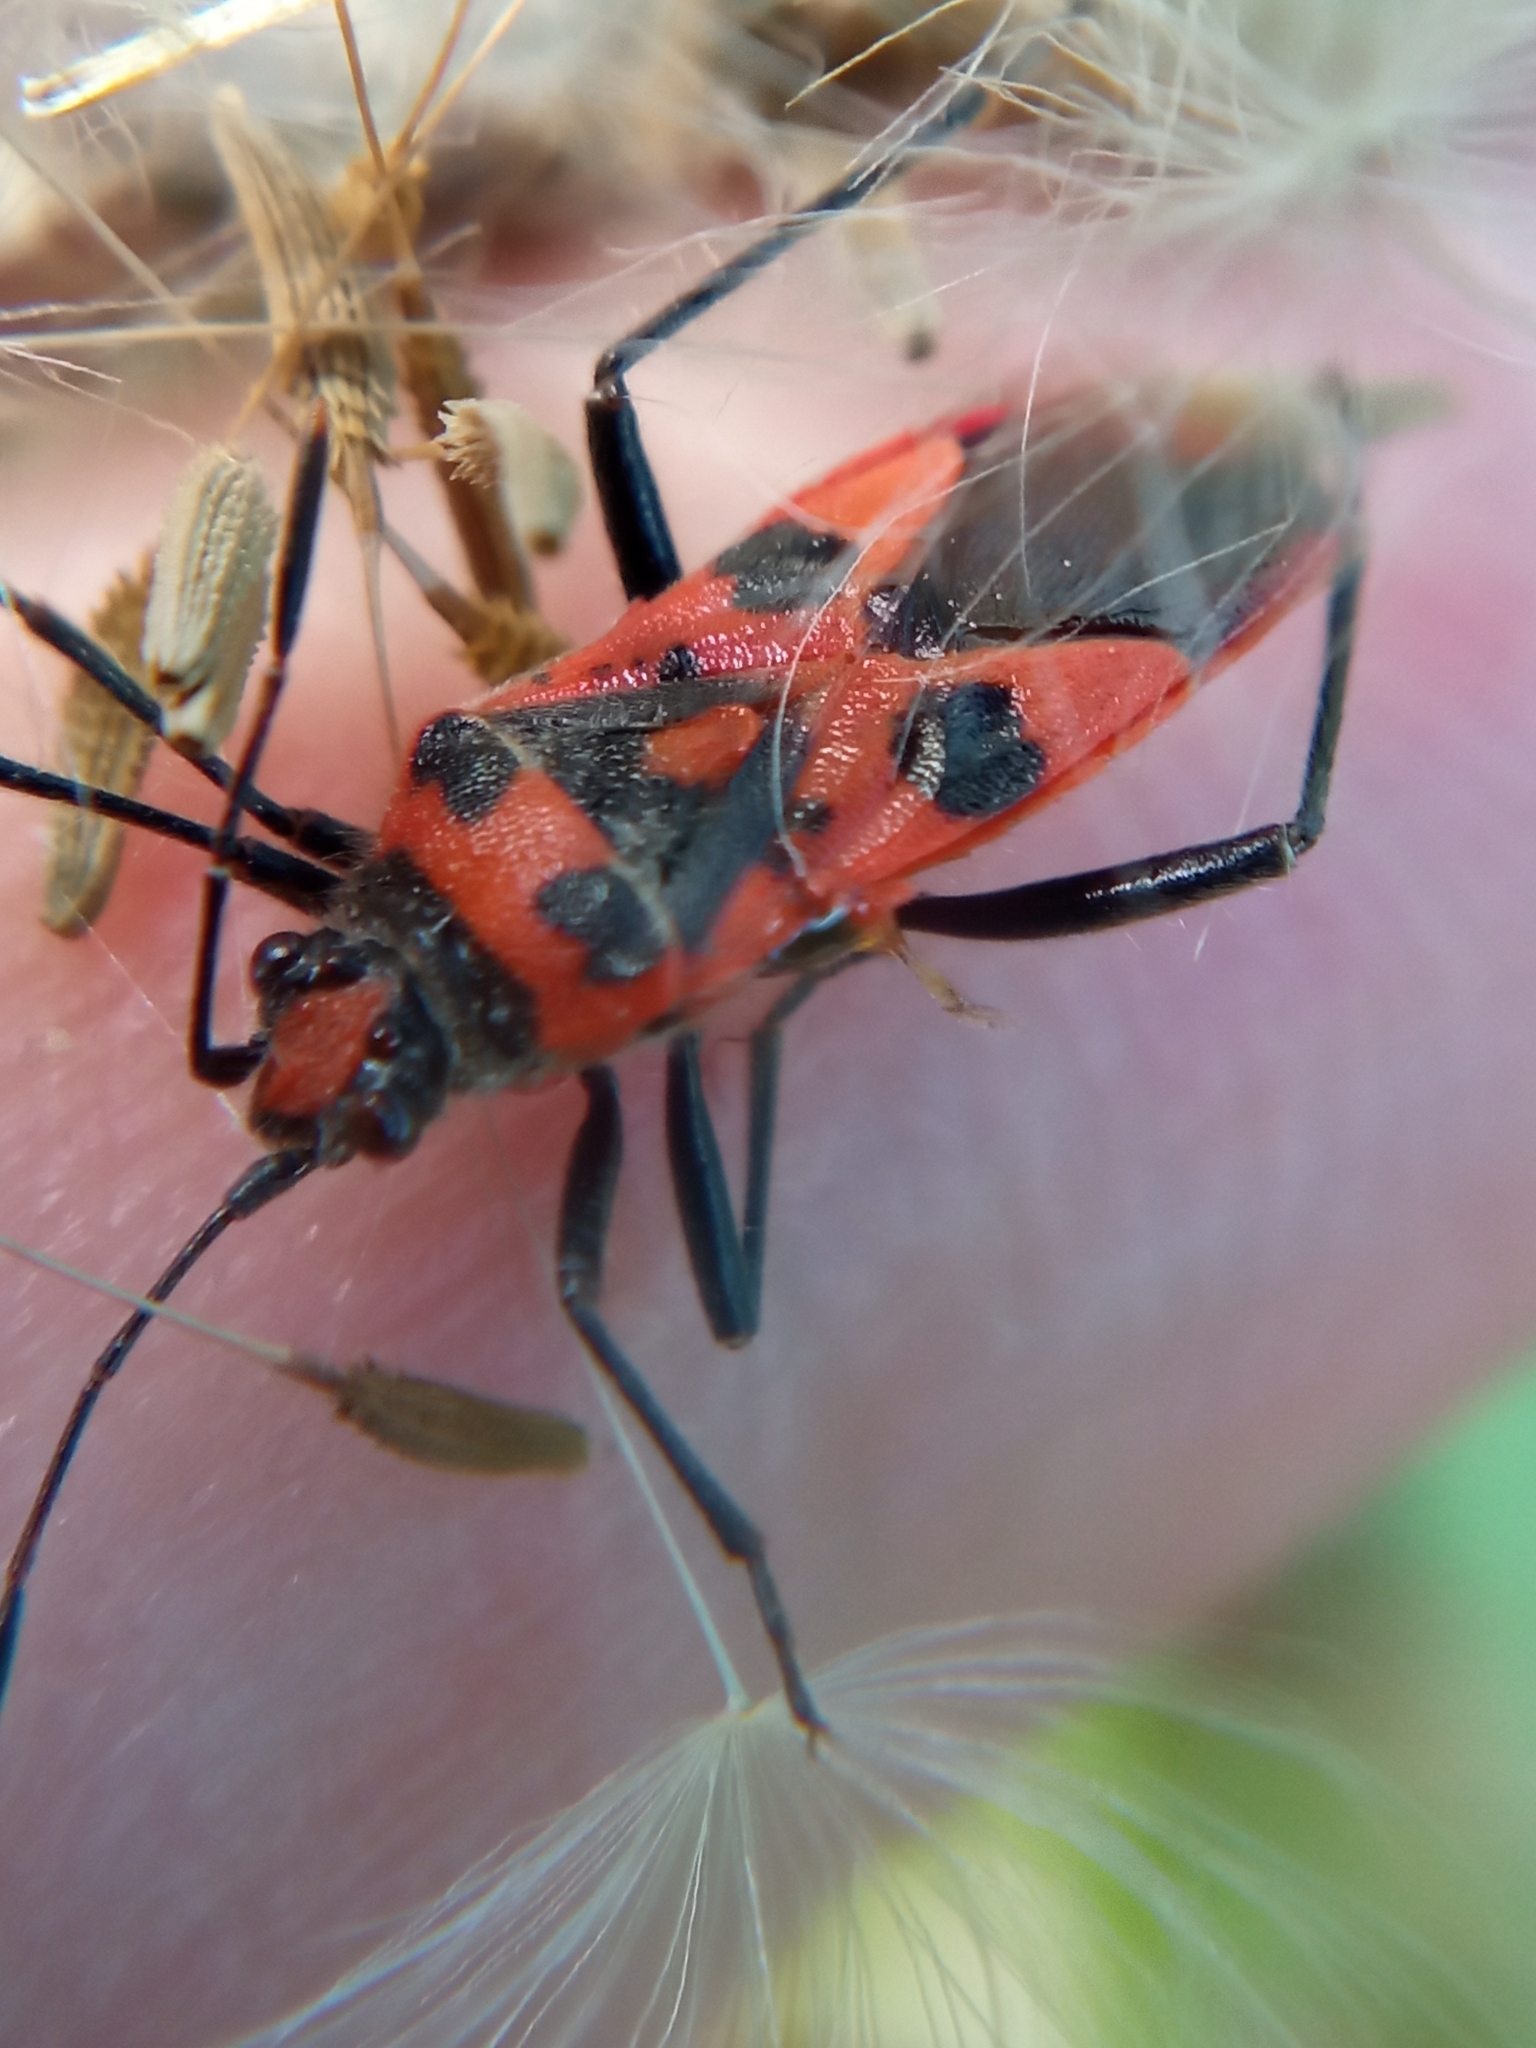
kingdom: Animalia
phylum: Arthropoda
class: Insecta
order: Hemiptera
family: Rhopalidae
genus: Corizus
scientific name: Corizus hyoscyami
